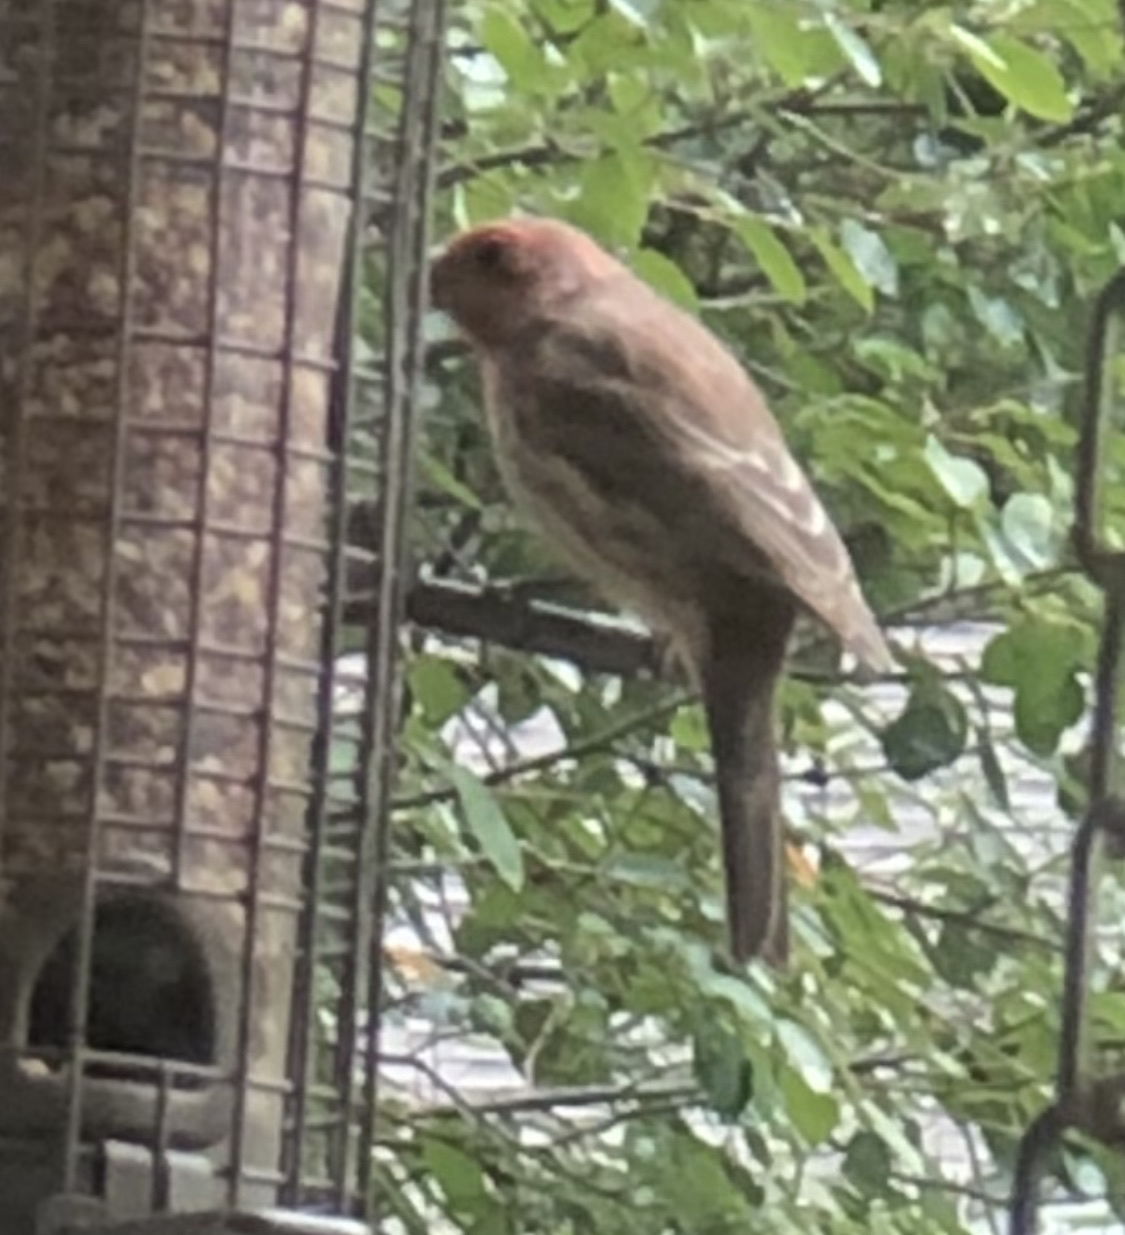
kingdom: Animalia
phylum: Chordata
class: Aves
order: Passeriformes
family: Fringillidae
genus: Haemorhous
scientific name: Haemorhous mexicanus
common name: House finch
